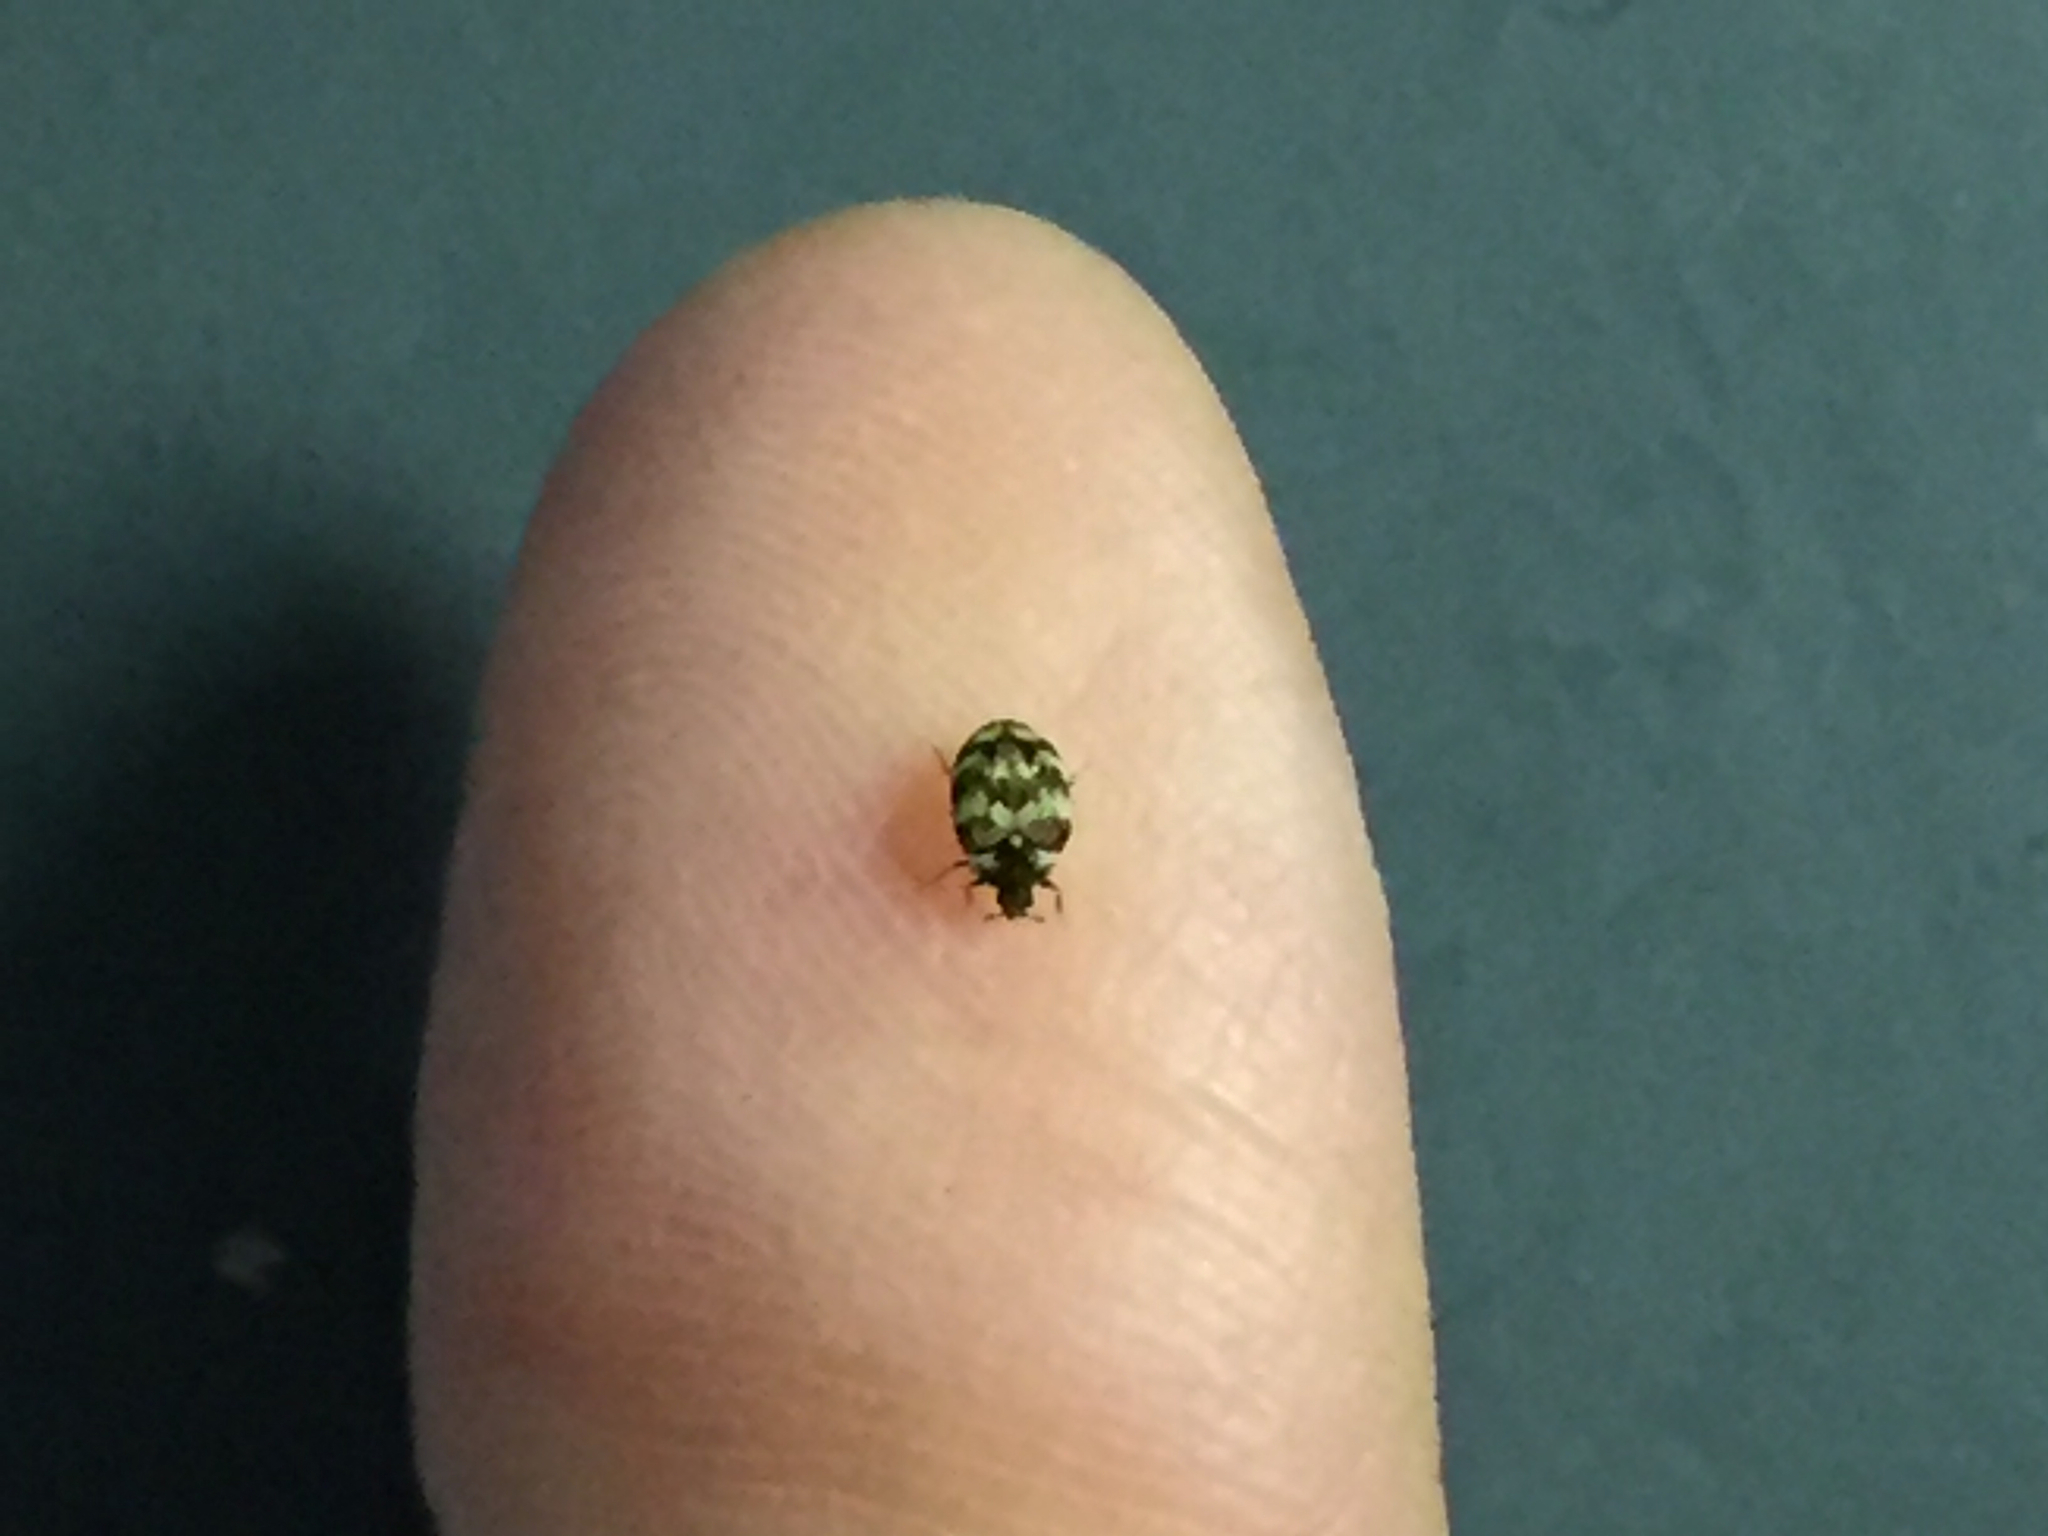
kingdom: Animalia
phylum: Arthropoda
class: Insecta
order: Coleoptera
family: Dermestidae
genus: Anthrenus
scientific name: Anthrenus verbasci
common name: Varied carpet beetle
